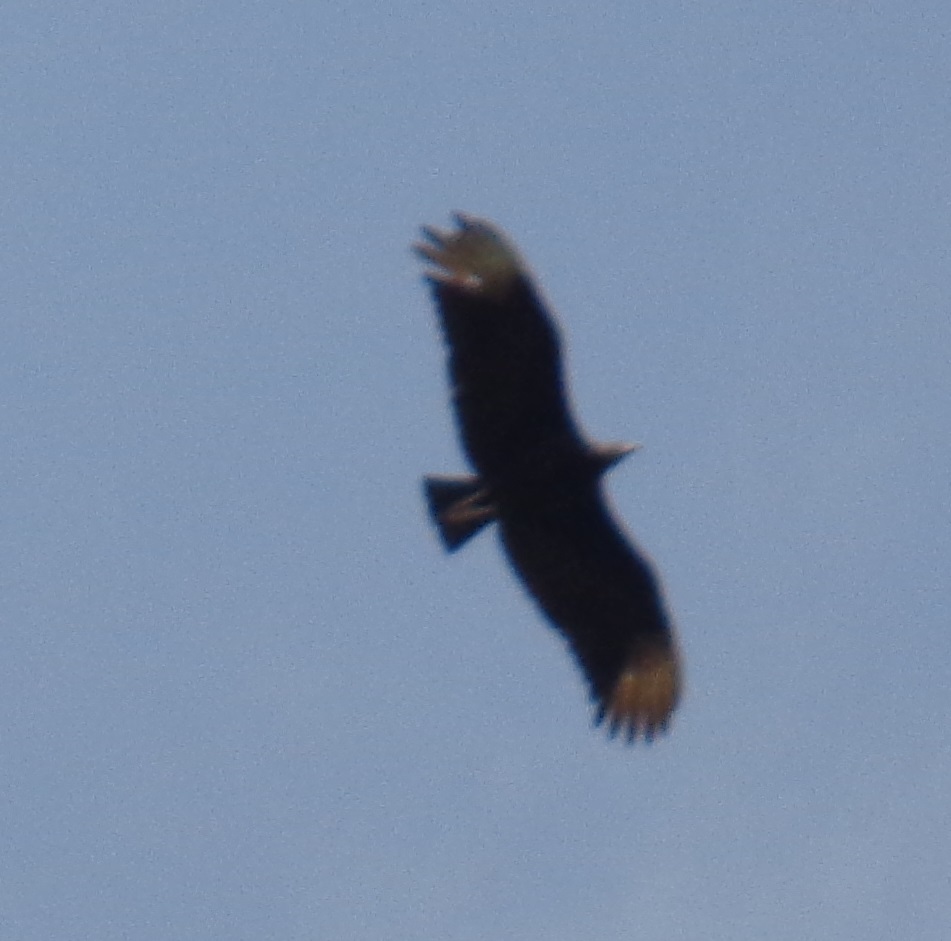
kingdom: Animalia
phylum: Chordata
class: Aves
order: Accipitriformes
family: Cathartidae
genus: Coragyps
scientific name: Coragyps atratus
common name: Black vulture
